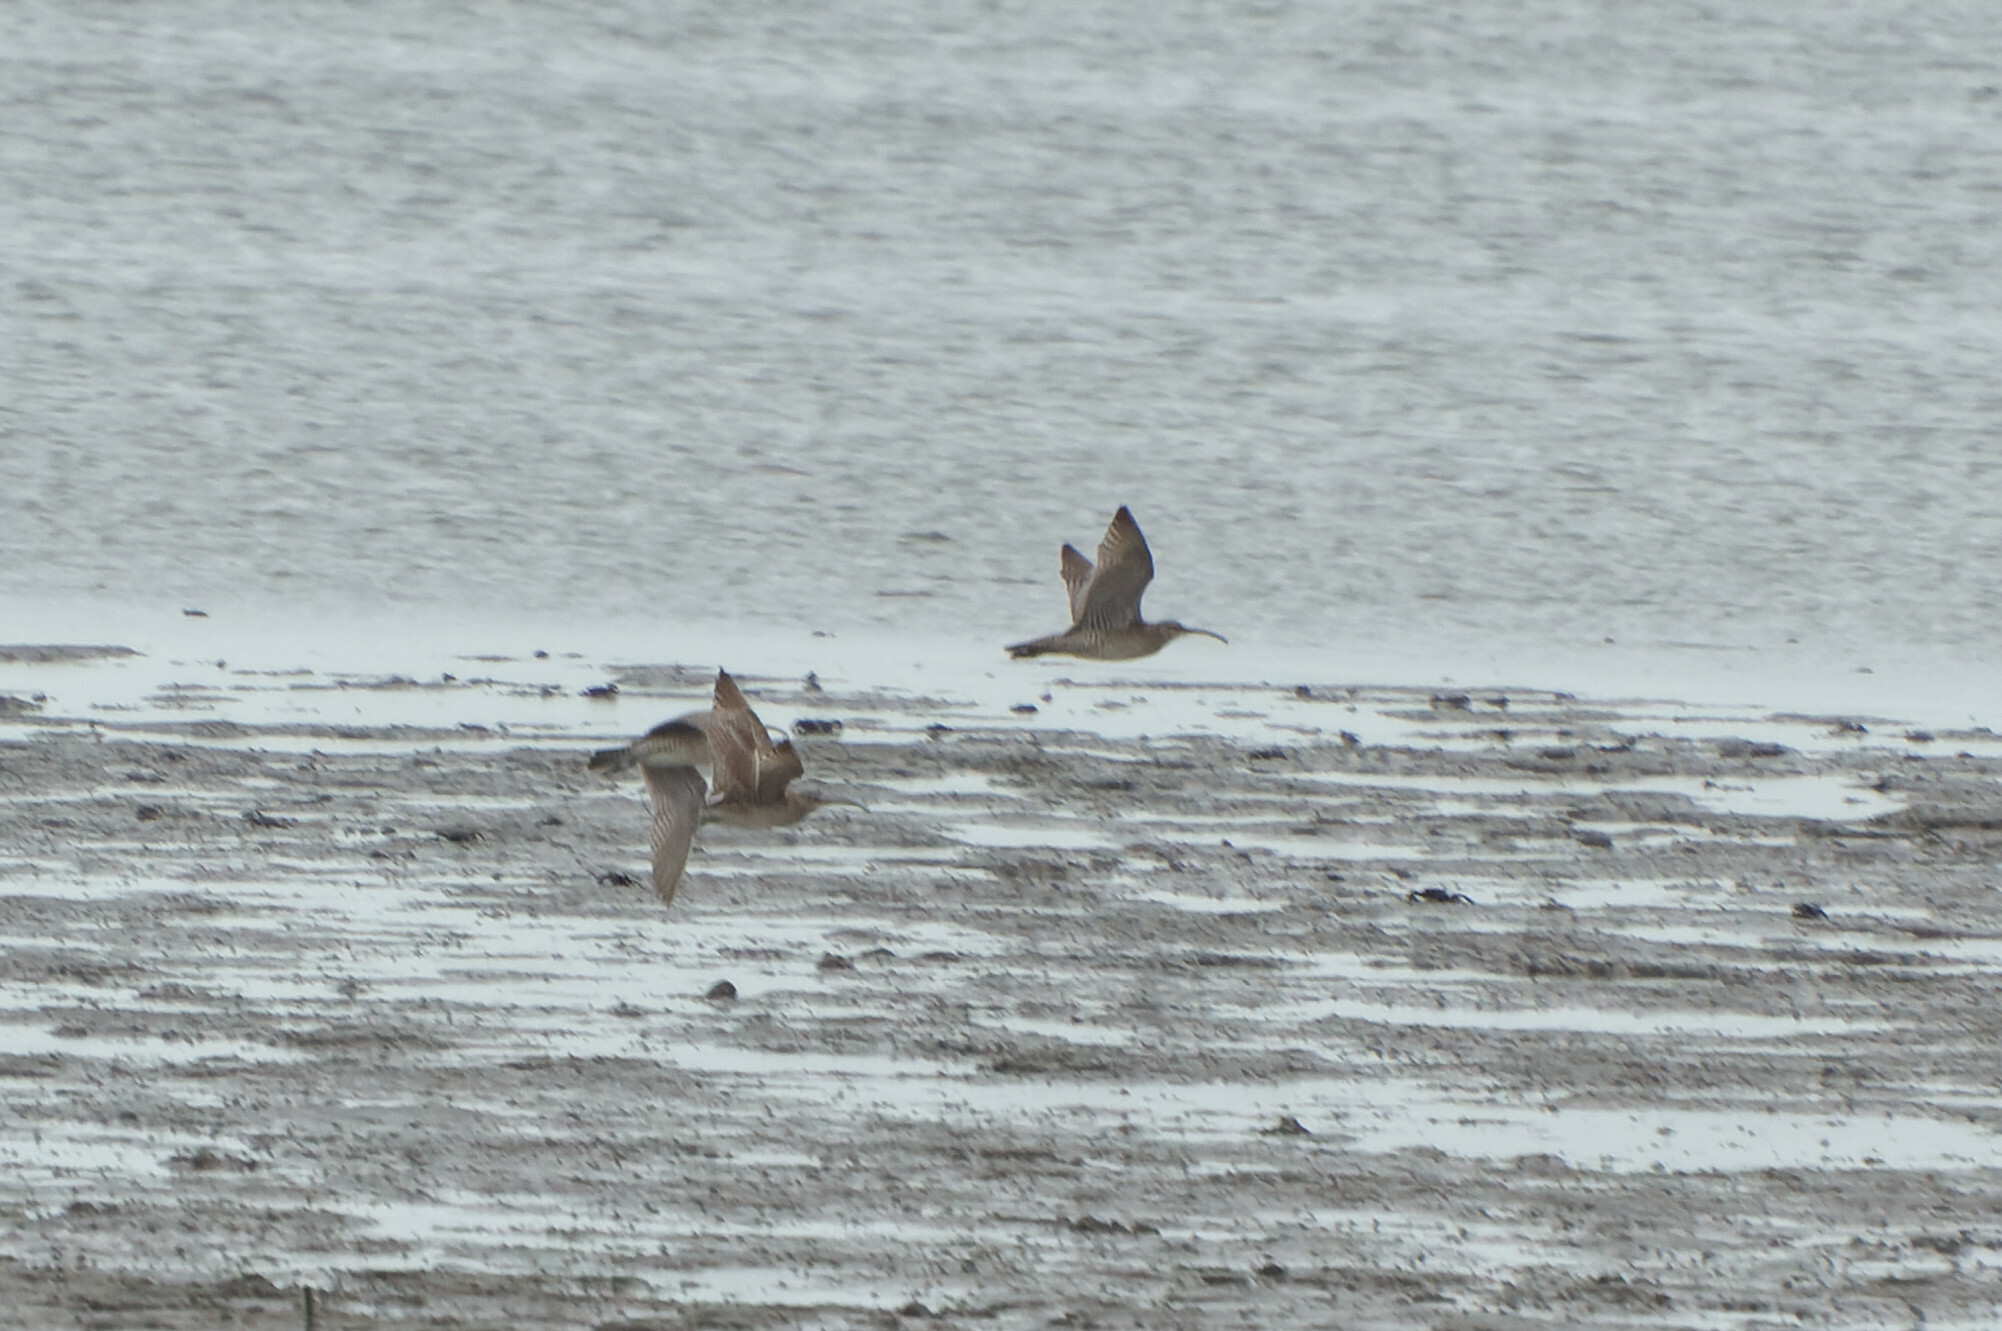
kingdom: Animalia
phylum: Chordata
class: Aves
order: Charadriiformes
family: Scolopacidae
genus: Numenius
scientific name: Numenius phaeopus
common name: Whimbrel
